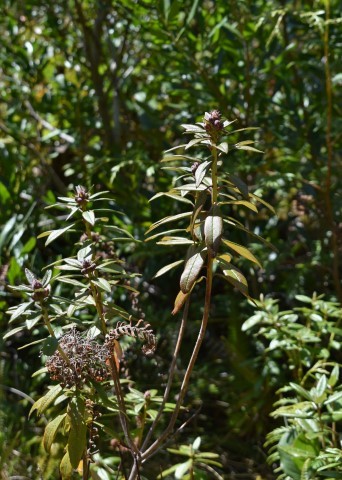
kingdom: Plantae
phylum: Tracheophyta
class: Magnoliopsida
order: Ericales
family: Ericaceae
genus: Rhododendron
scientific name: Rhododendron columbianum
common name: Western labrador tea
